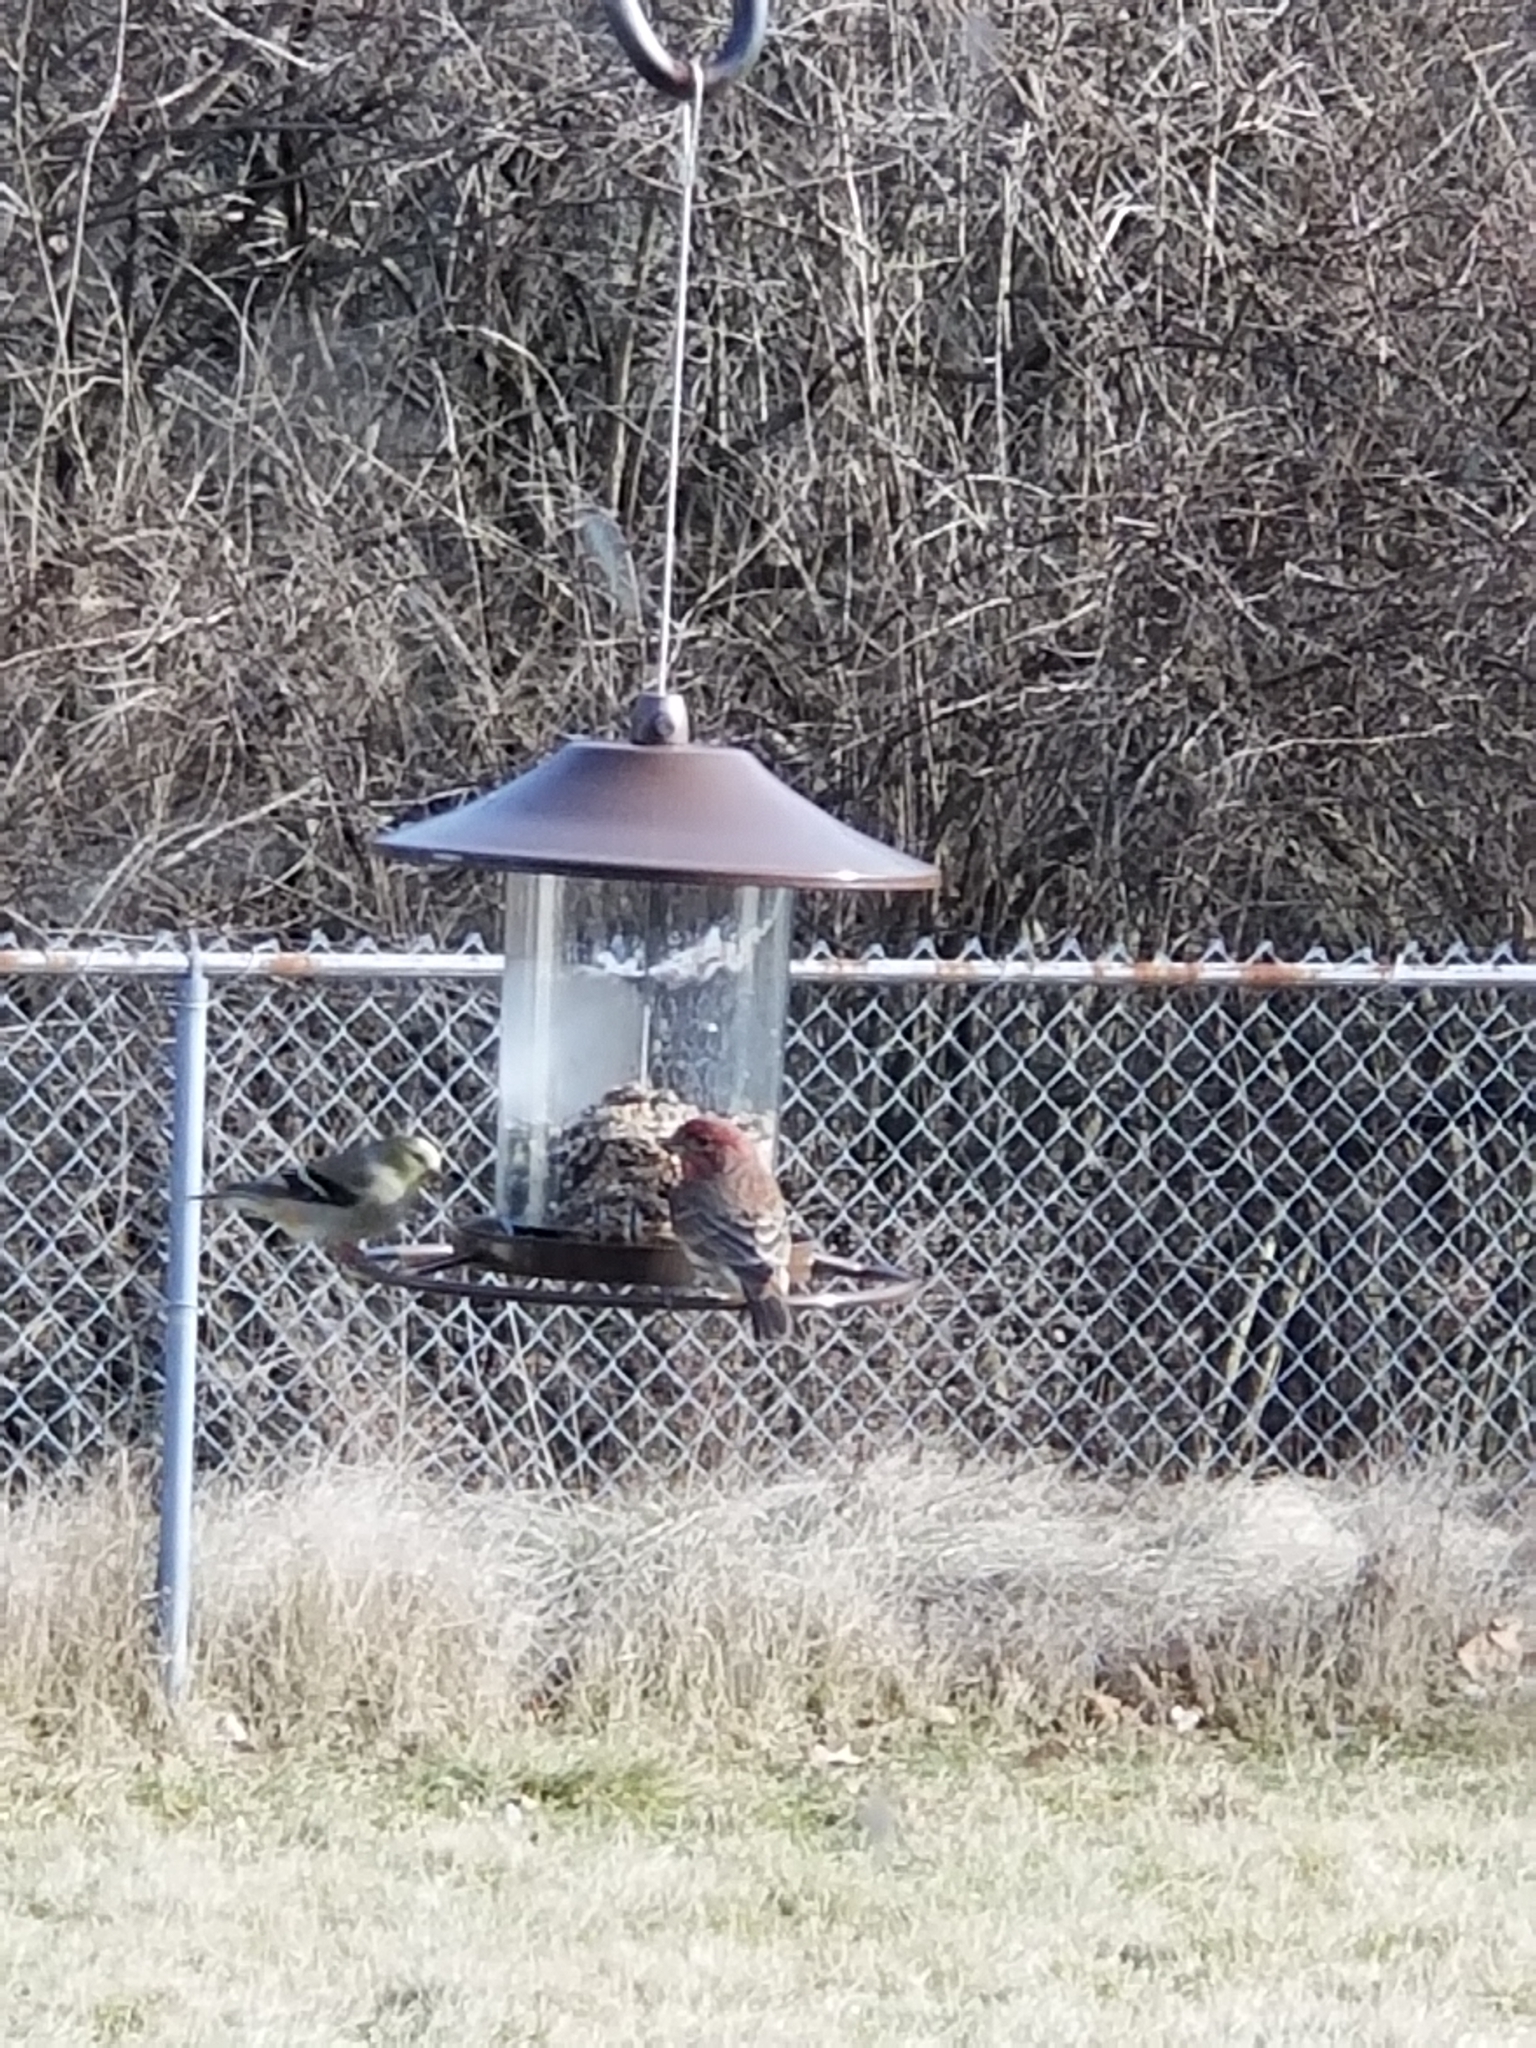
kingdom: Animalia
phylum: Chordata
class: Aves
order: Passeriformes
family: Fringillidae
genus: Haemorhous
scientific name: Haemorhous mexicanus
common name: House finch
